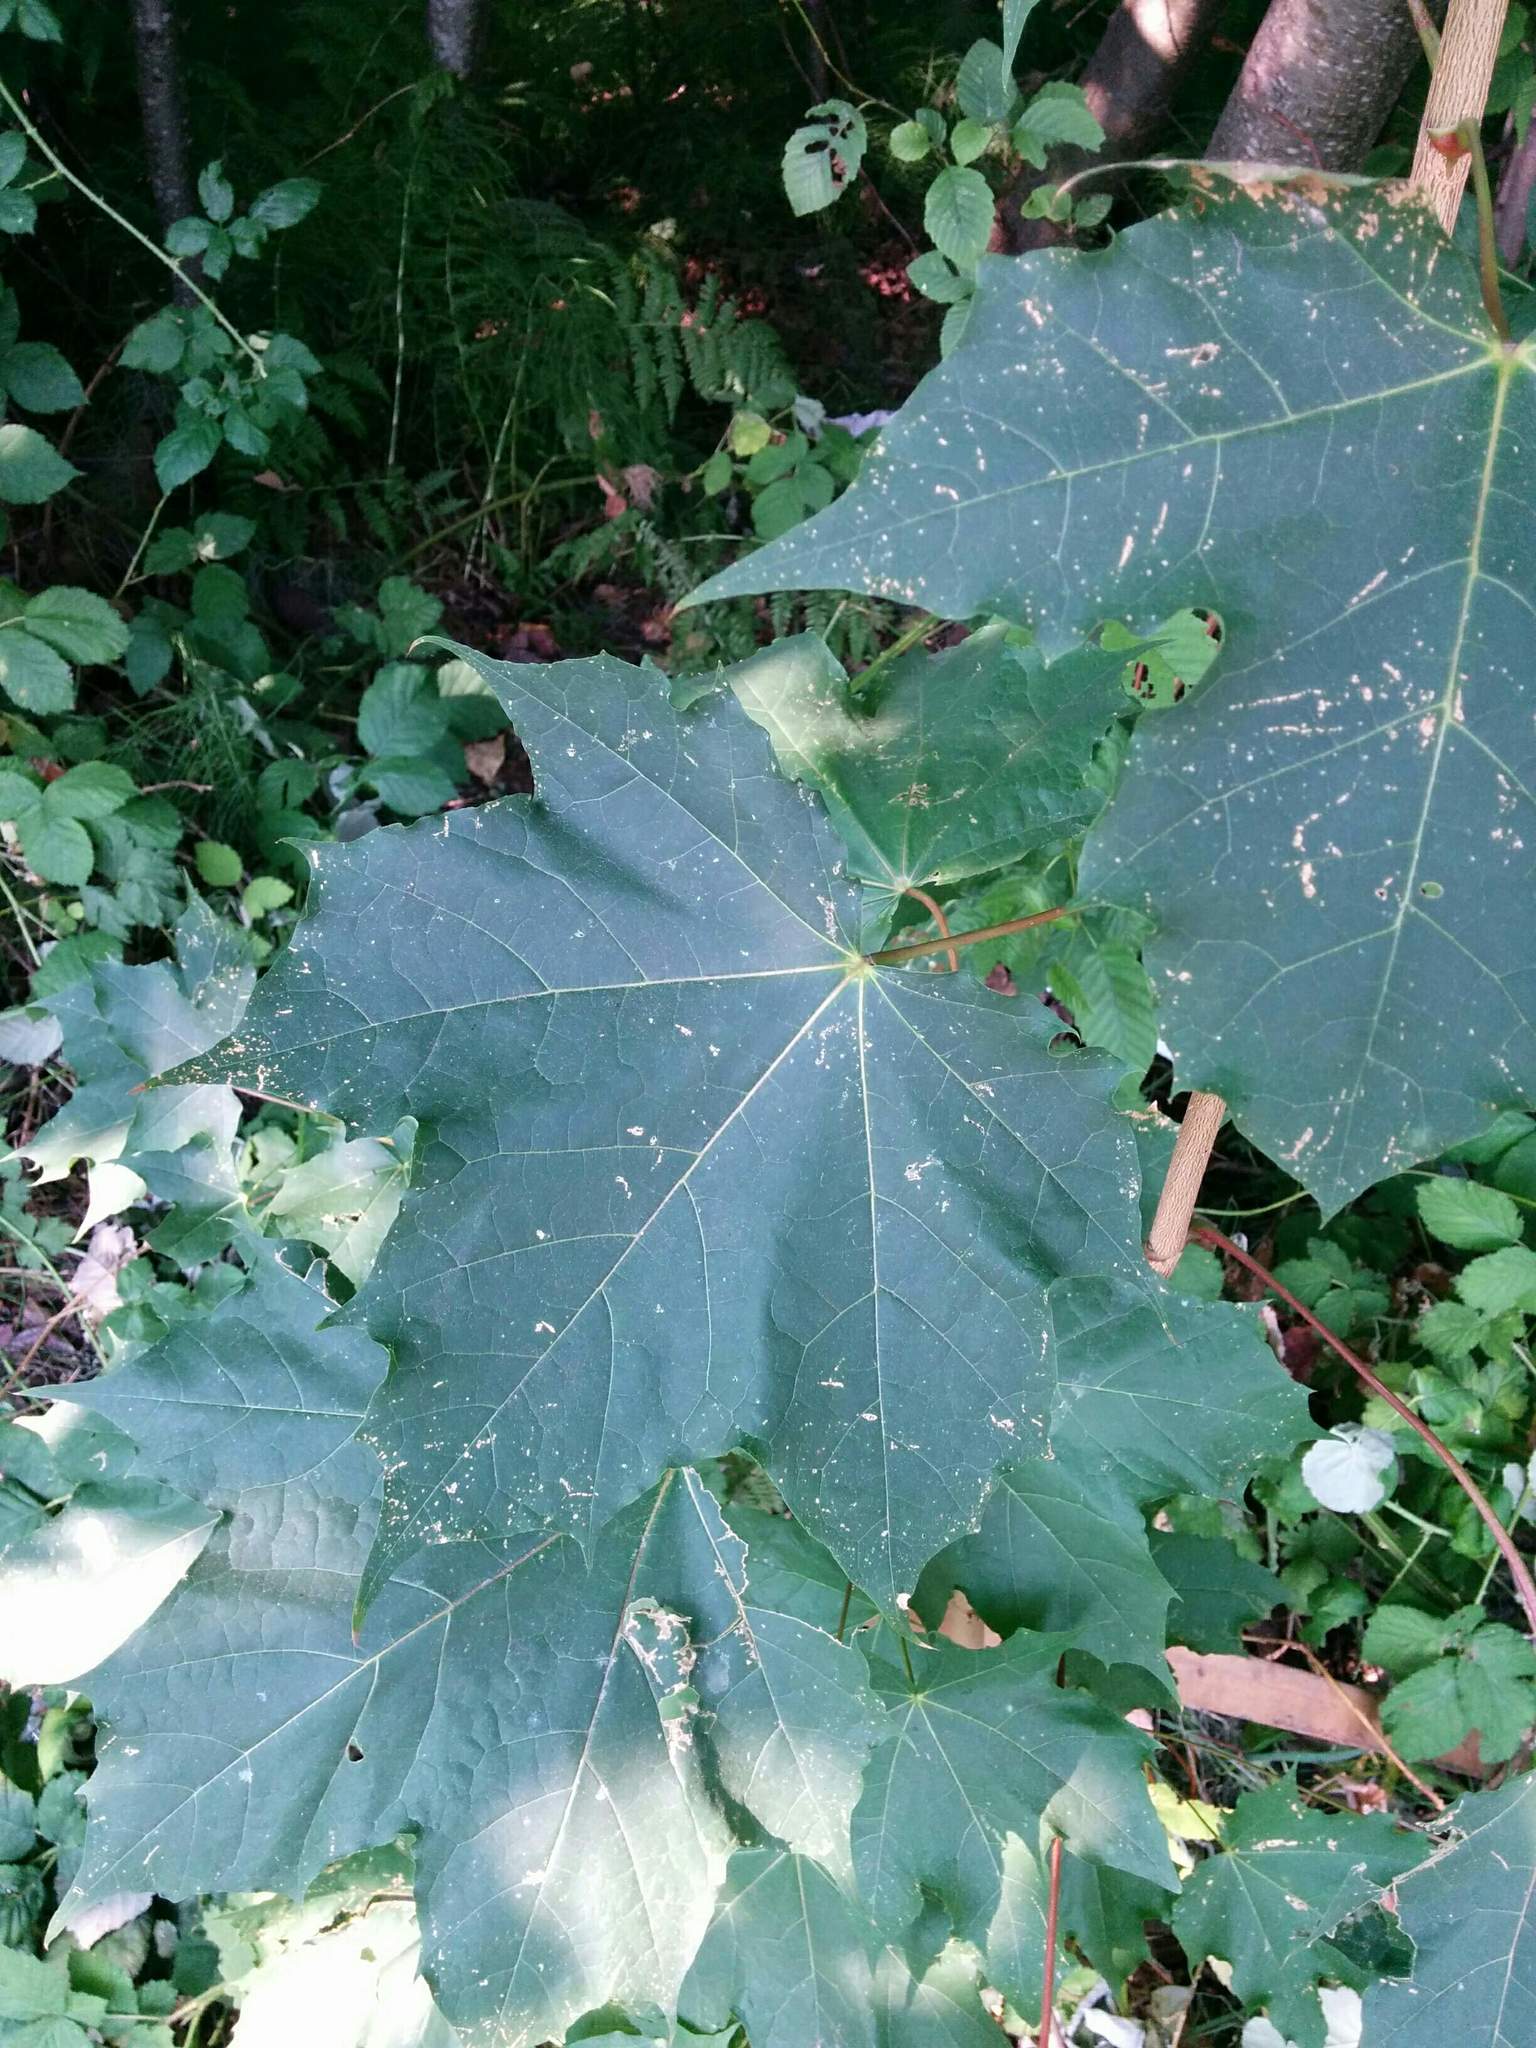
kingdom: Plantae
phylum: Tracheophyta
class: Magnoliopsida
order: Sapindales
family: Sapindaceae
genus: Acer
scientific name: Acer platanoides
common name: Norway maple
